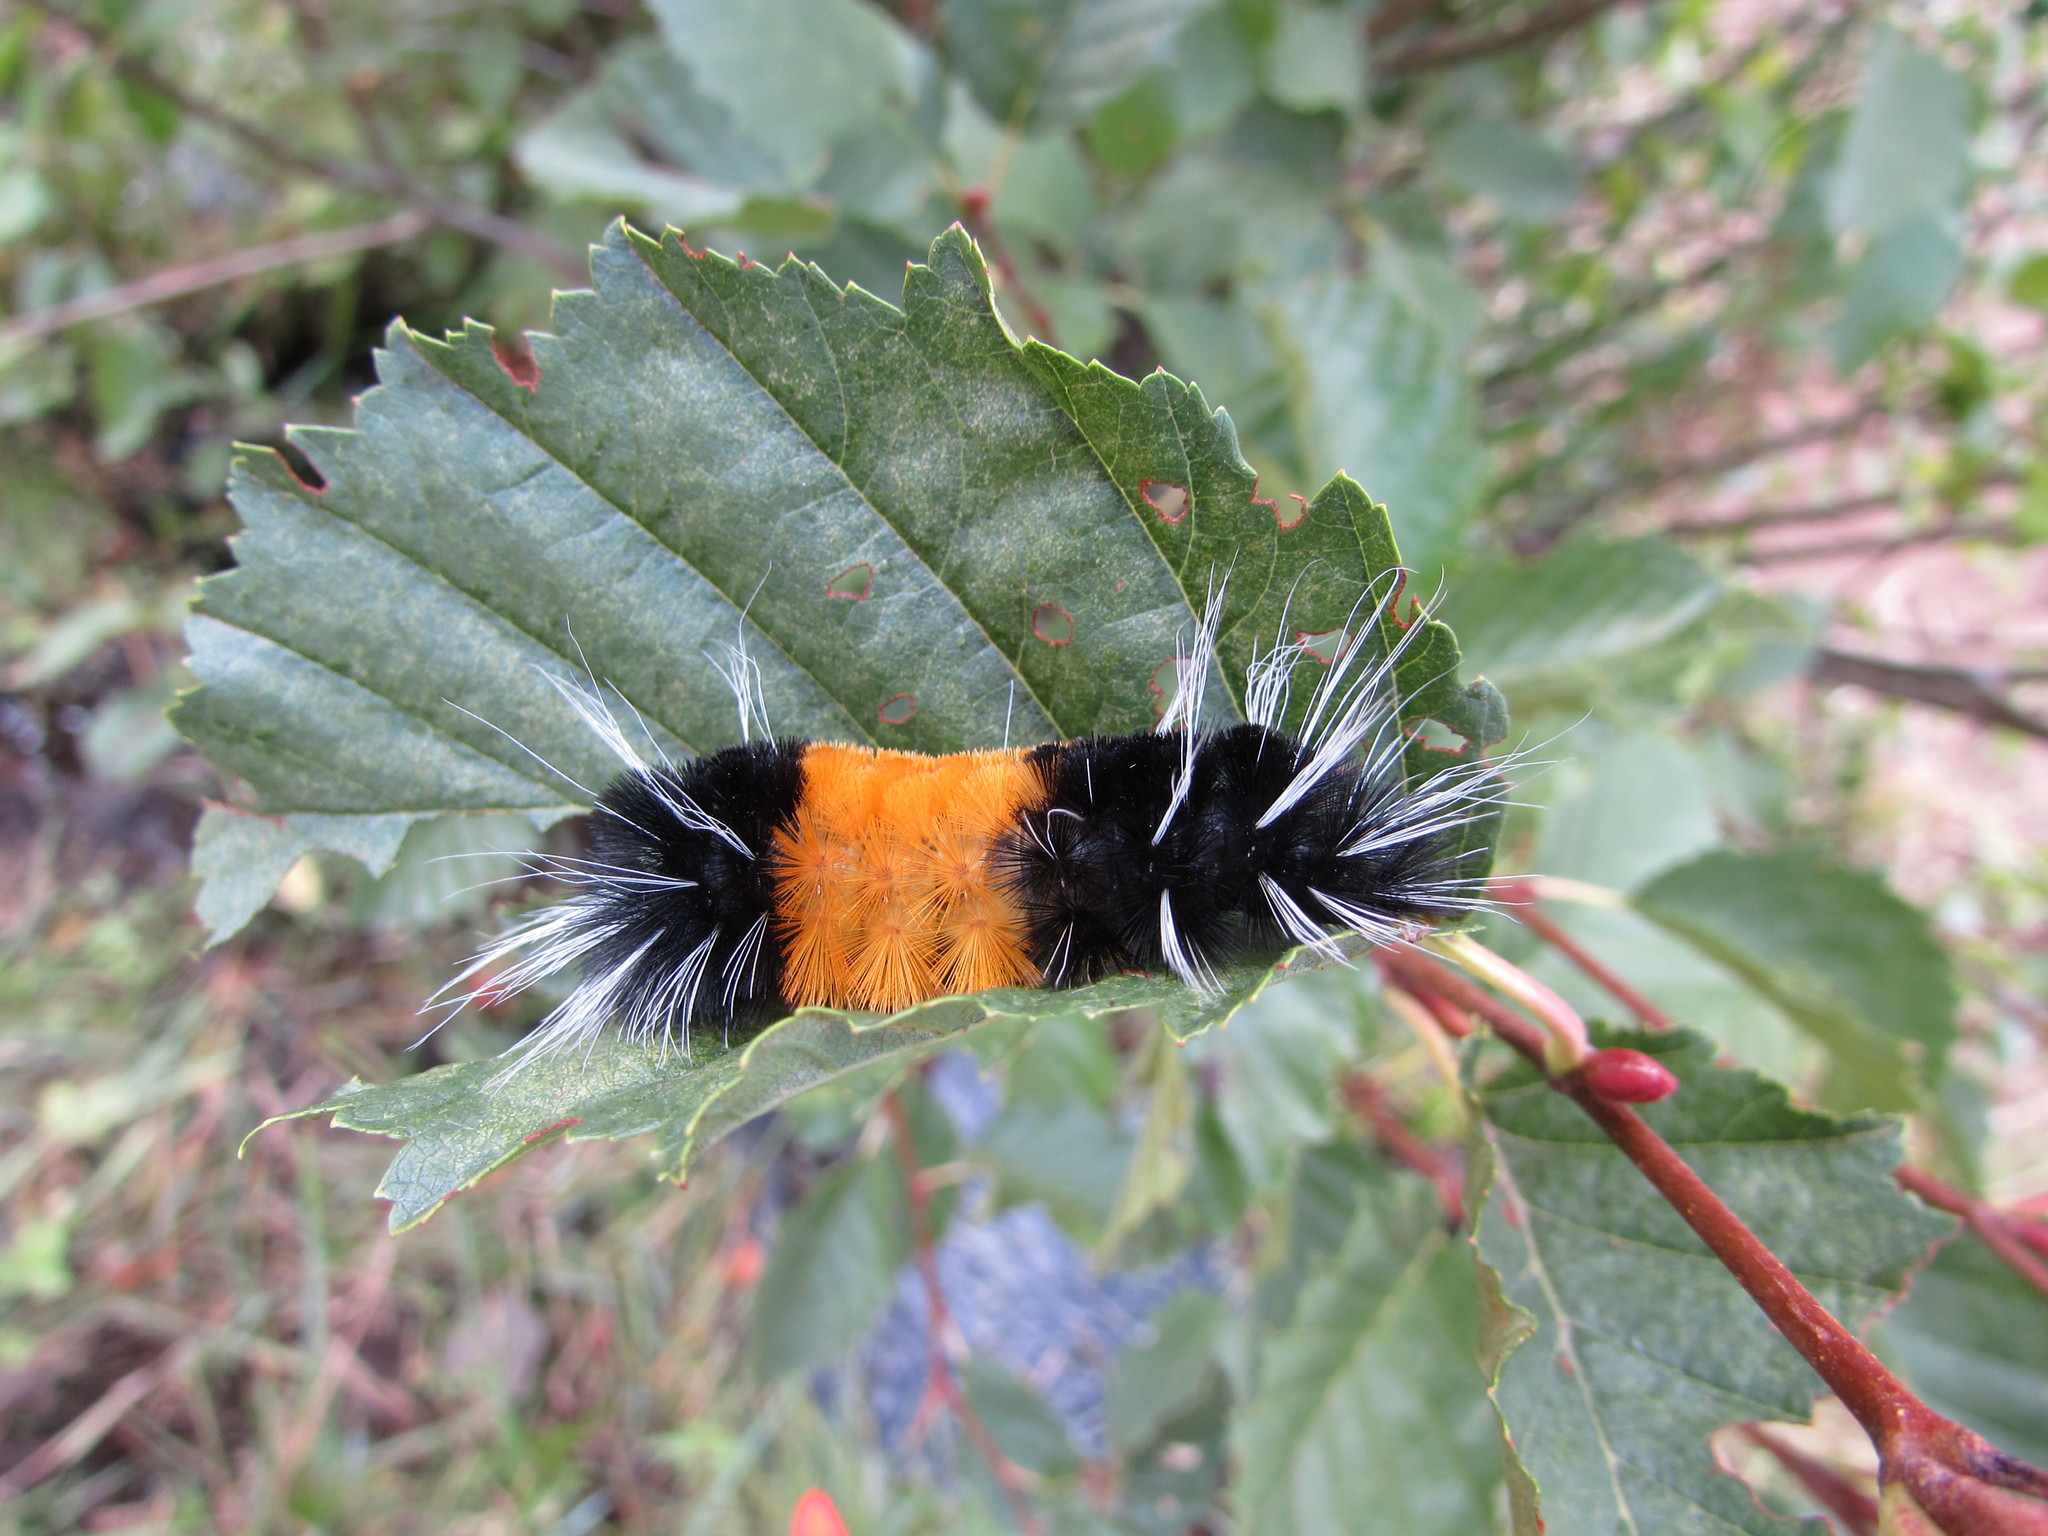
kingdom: Animalia
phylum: Arthropoda
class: Insecta
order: Lepidoptera
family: Erebidae
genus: Lophocampa
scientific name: Lophocampa maculata
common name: Spotted tussock moth
